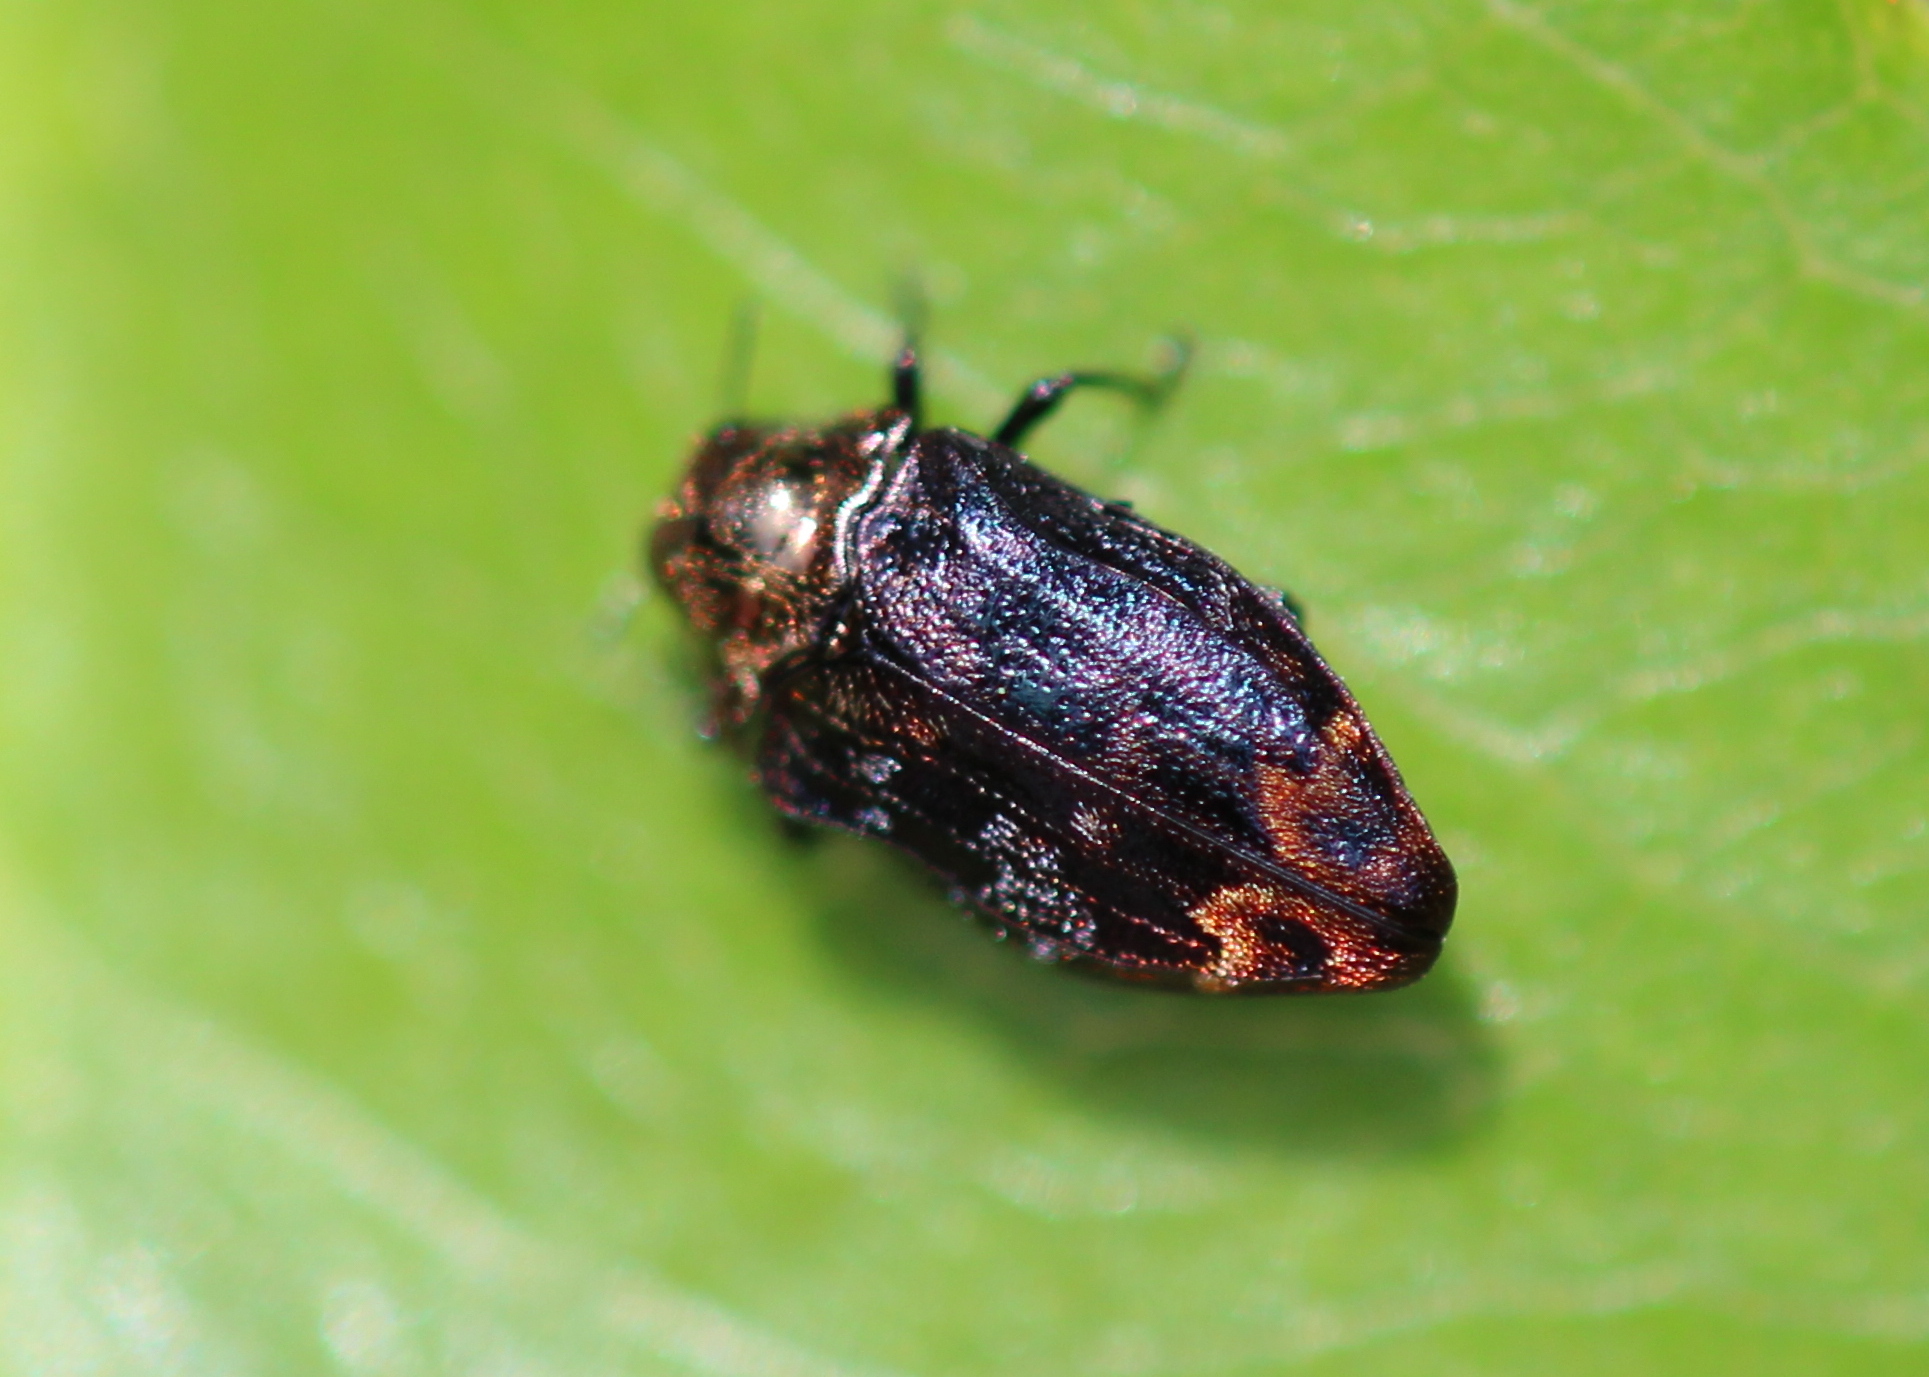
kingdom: Animalia
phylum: Arthropoda
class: Insecta
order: Coleoptera
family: Buprestidae
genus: Brachys
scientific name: Brachys aerosus
